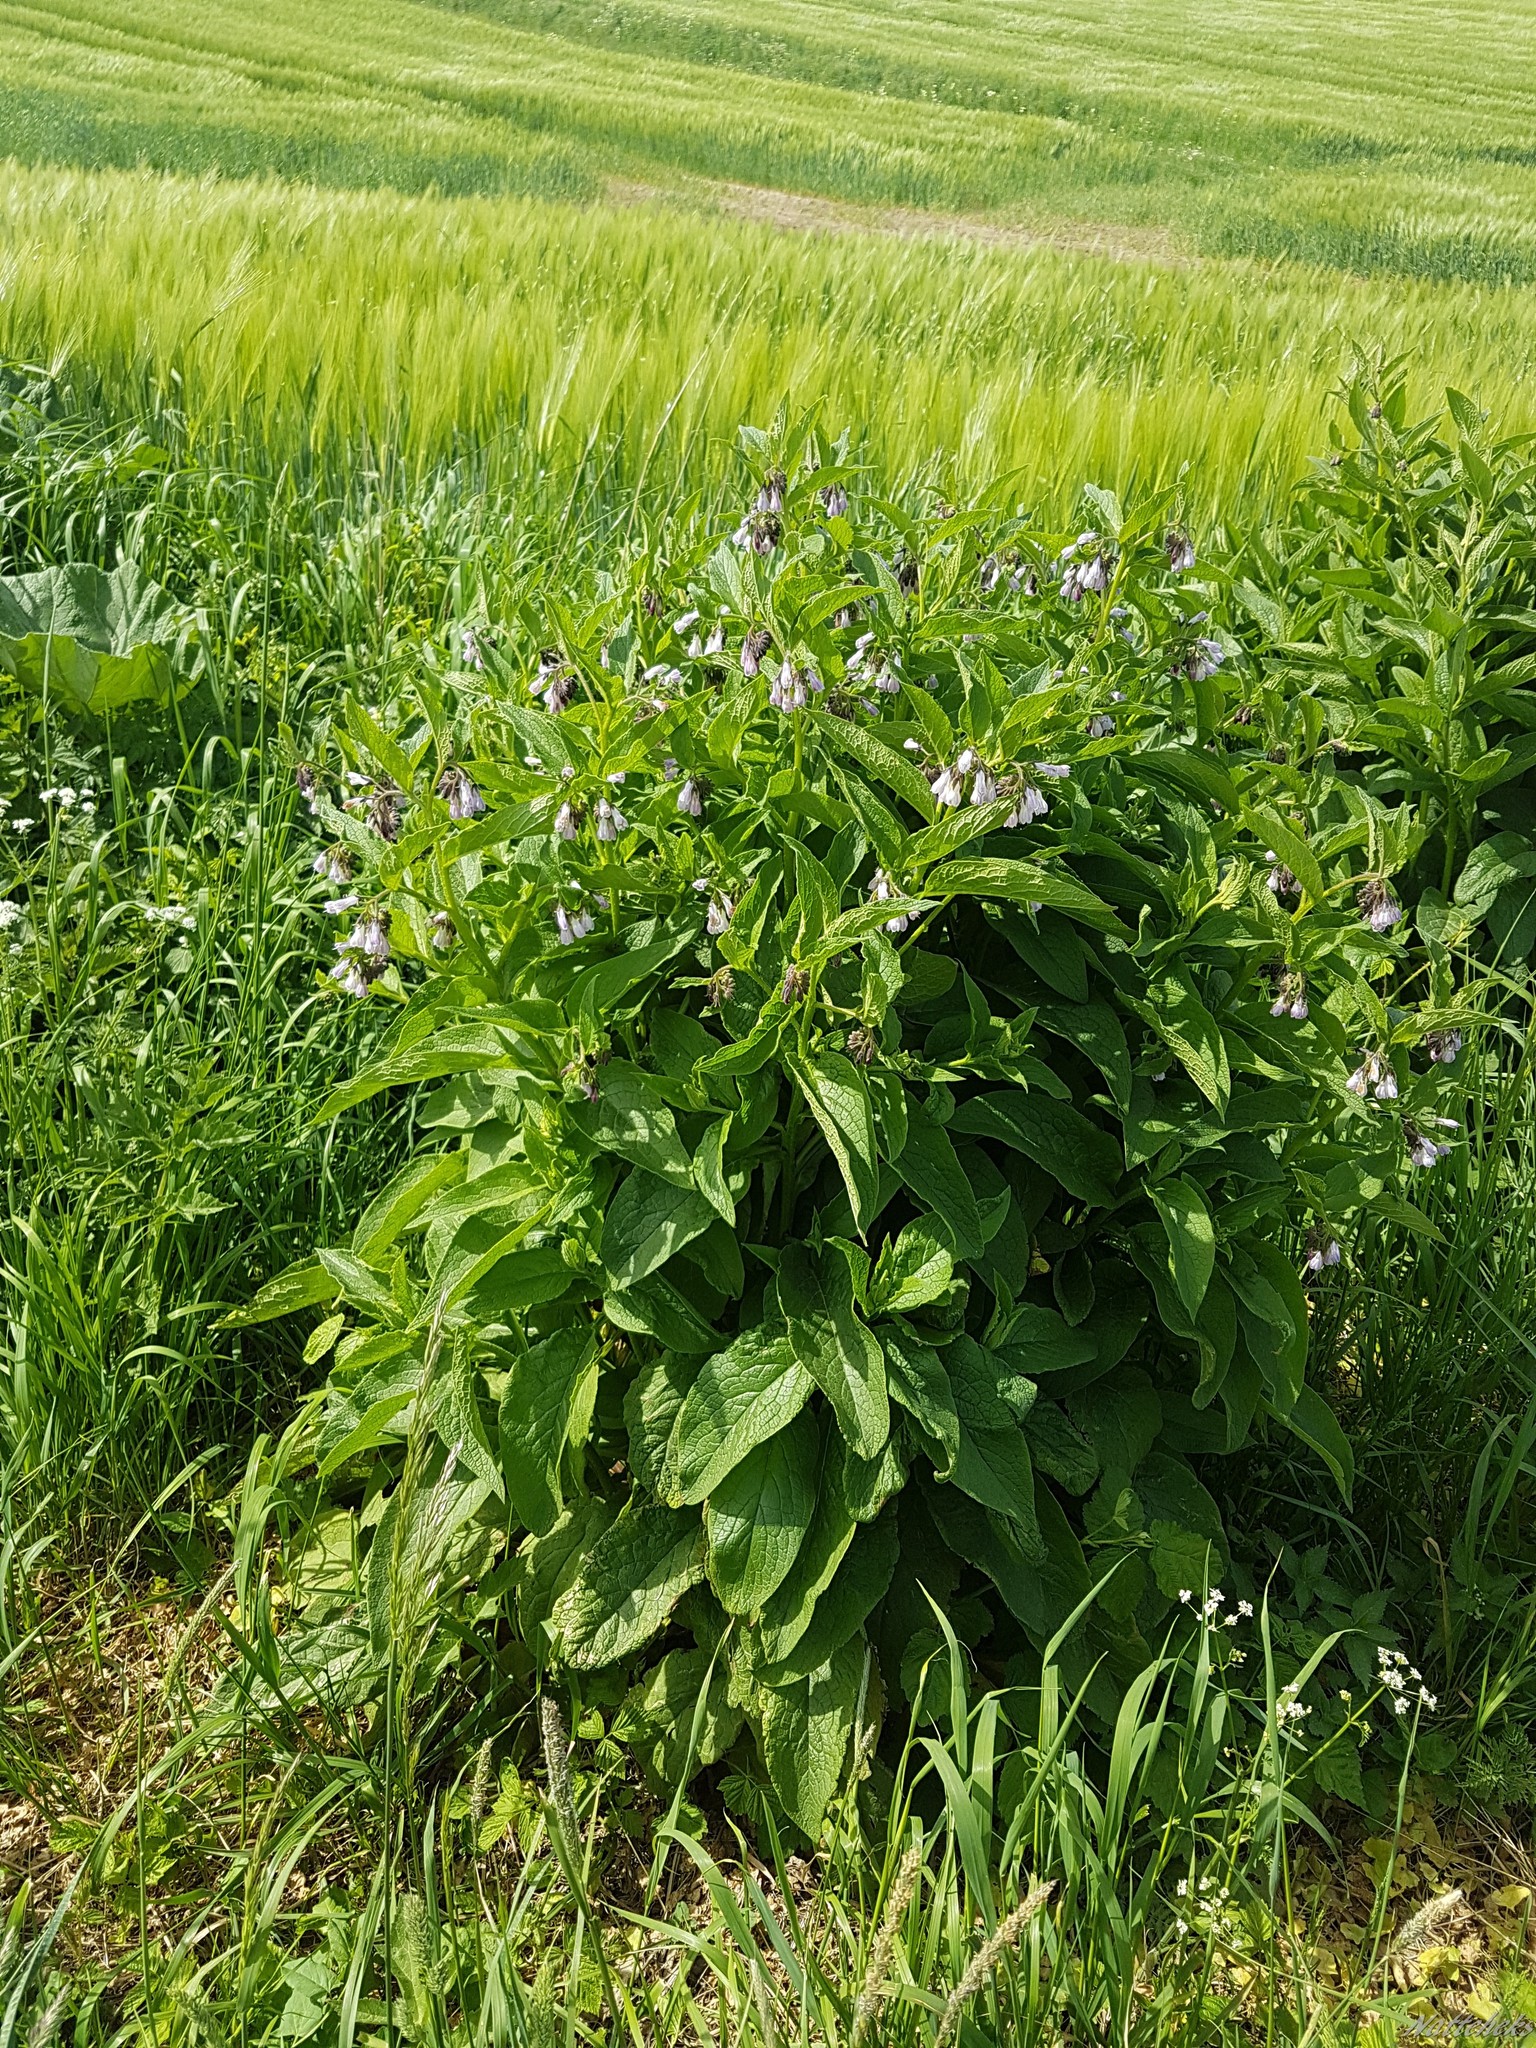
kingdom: Plantae
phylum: Tracheophyta
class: Magnoliopsida
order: Boraginales
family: Boraginaceae
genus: Symphytum
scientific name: Symphytum uplandicum
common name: Russian comfrey
